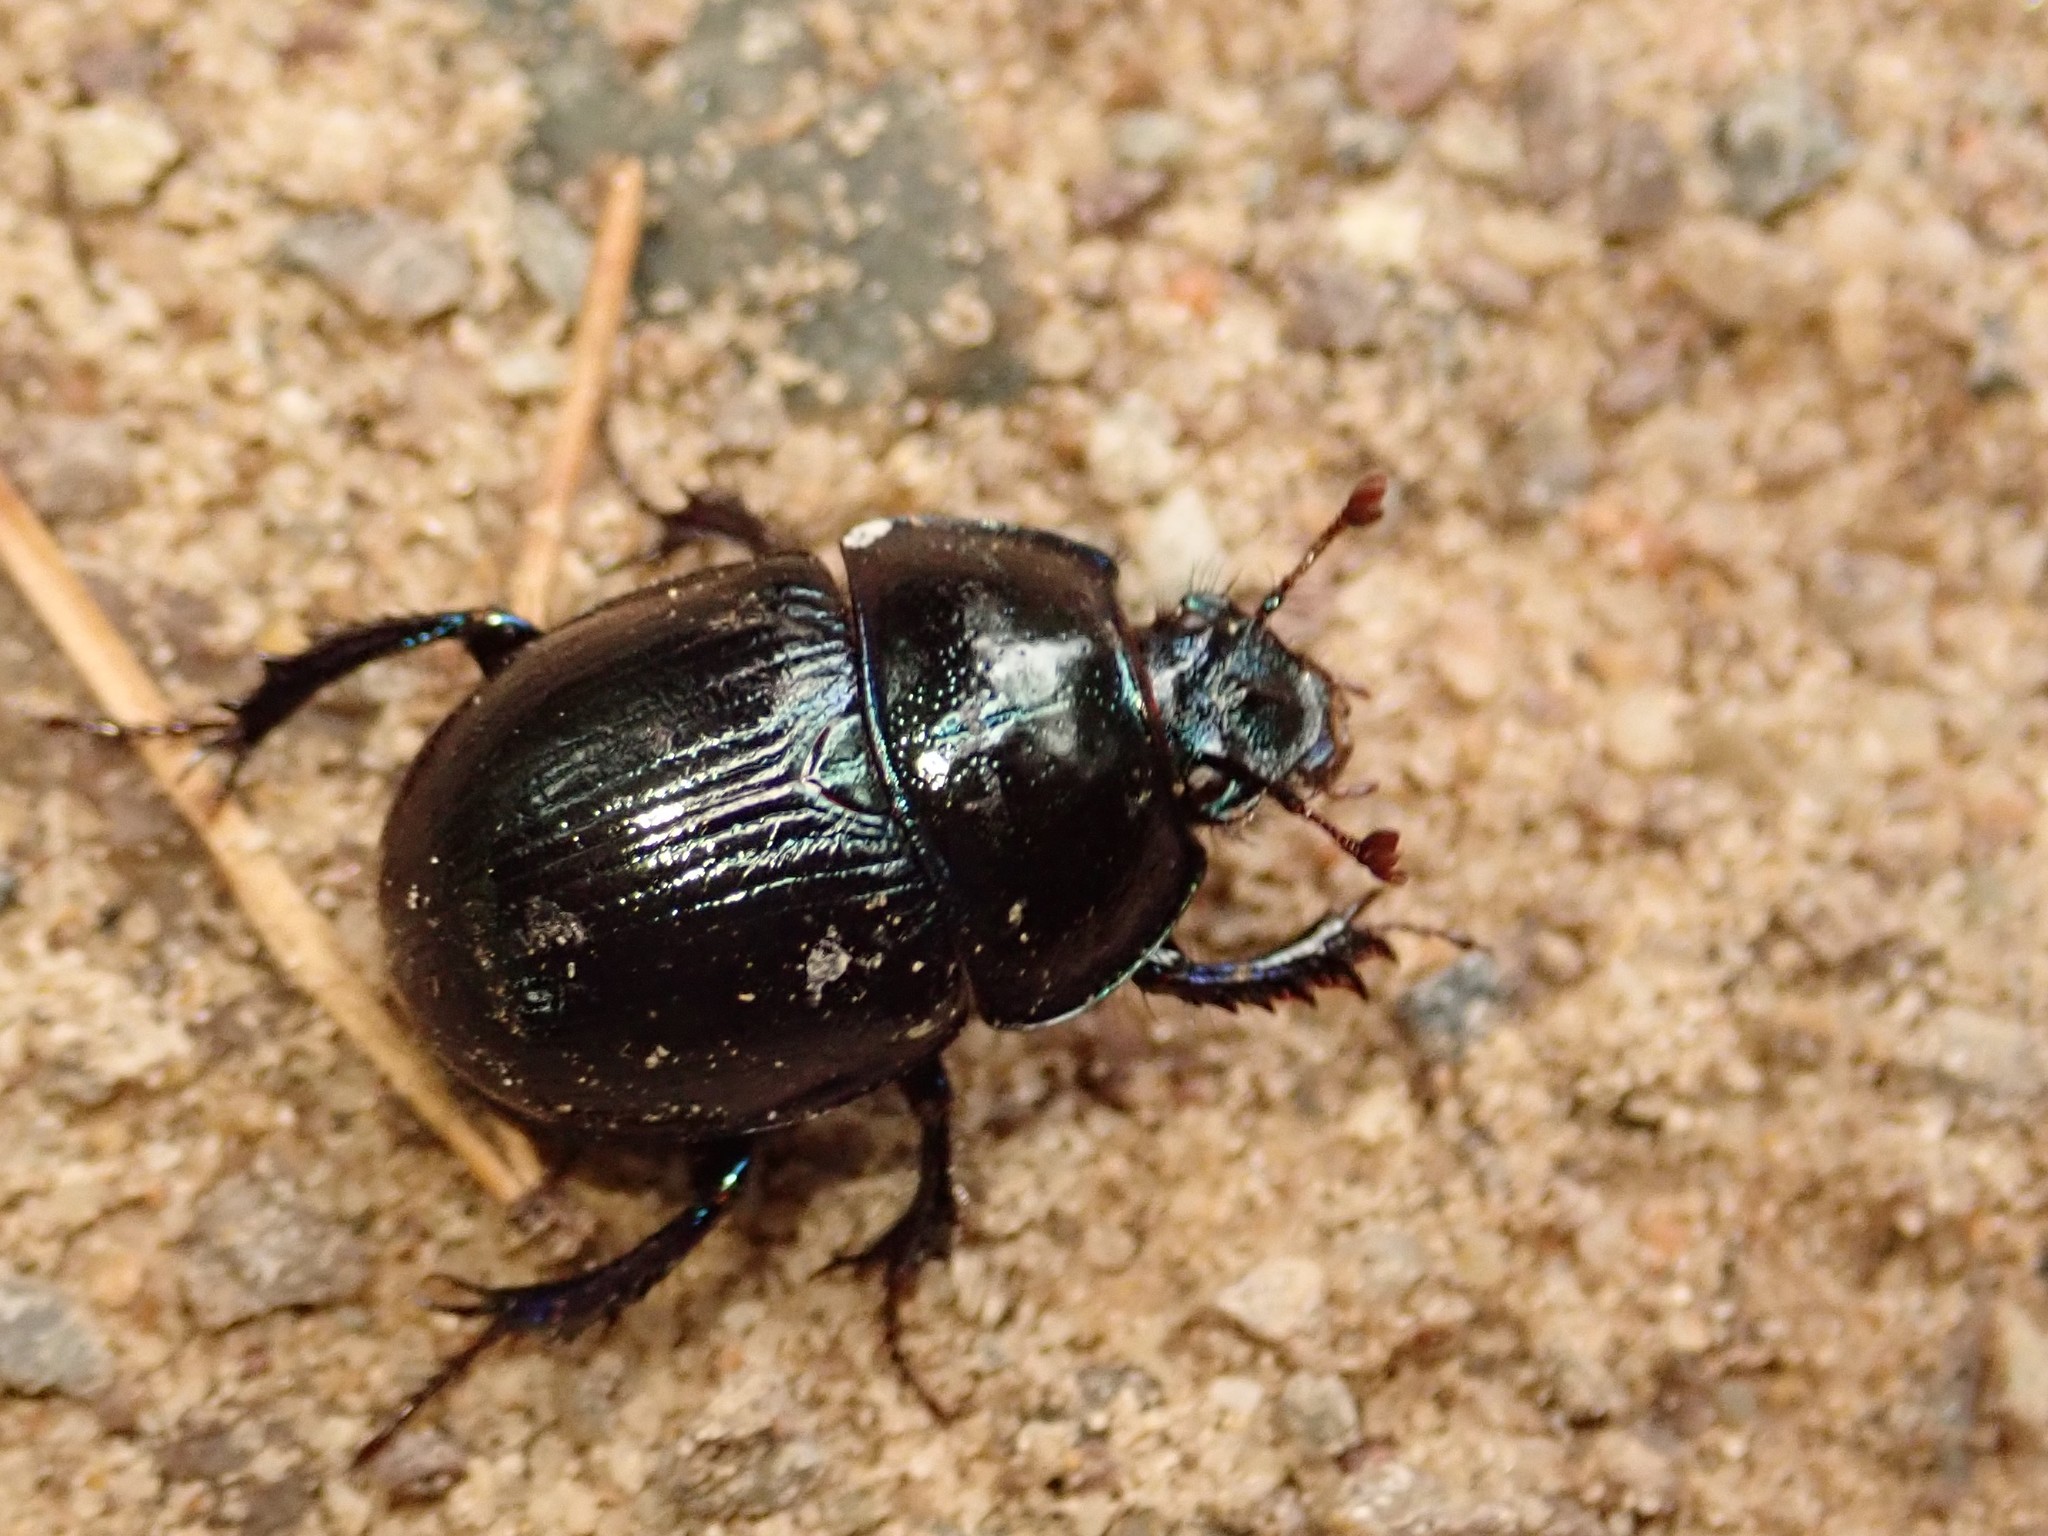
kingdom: Animalia
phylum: Arthropoda
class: Insecta
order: Coleoptera
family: Geotrupidae
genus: Anoplotrupes
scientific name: Anoplotrupes stercorosus
